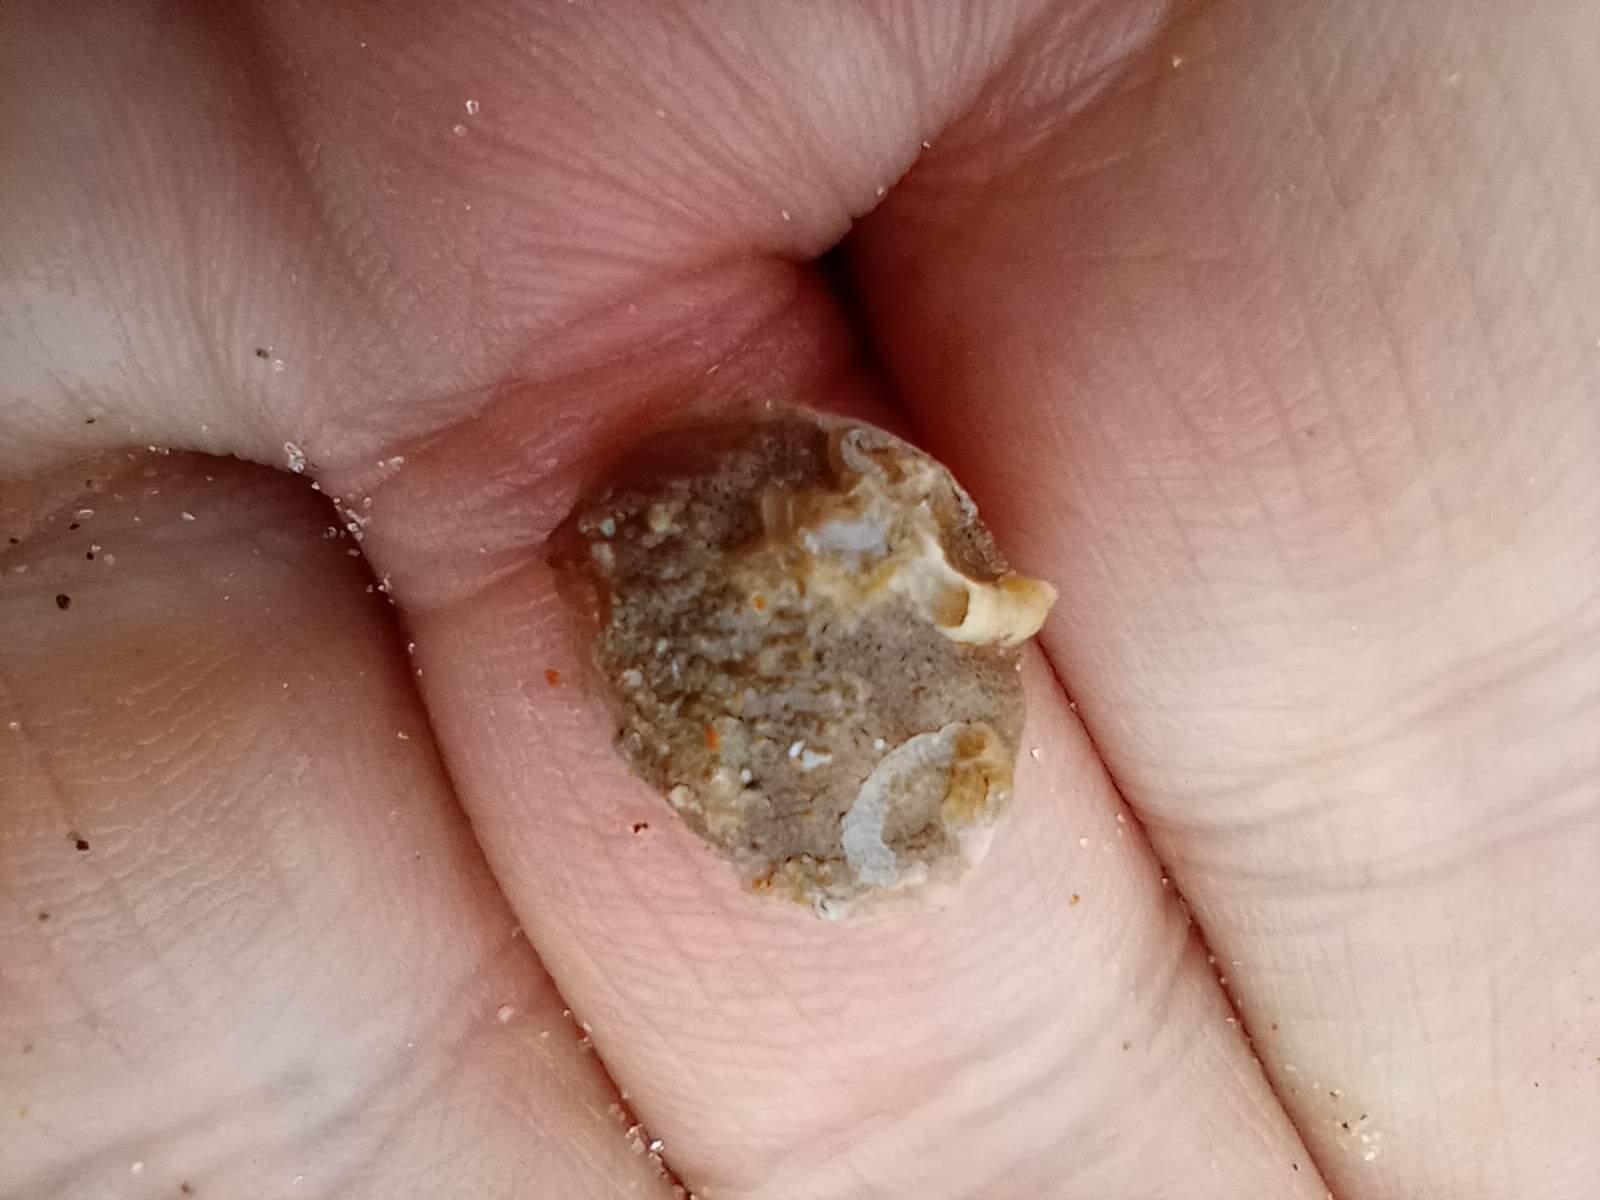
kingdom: Animalia
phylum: Mollusca
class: Gastropoda
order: Littorinimorpha
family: Calyptraeidae
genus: Crepipatella
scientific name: Crepipatella lingulata
